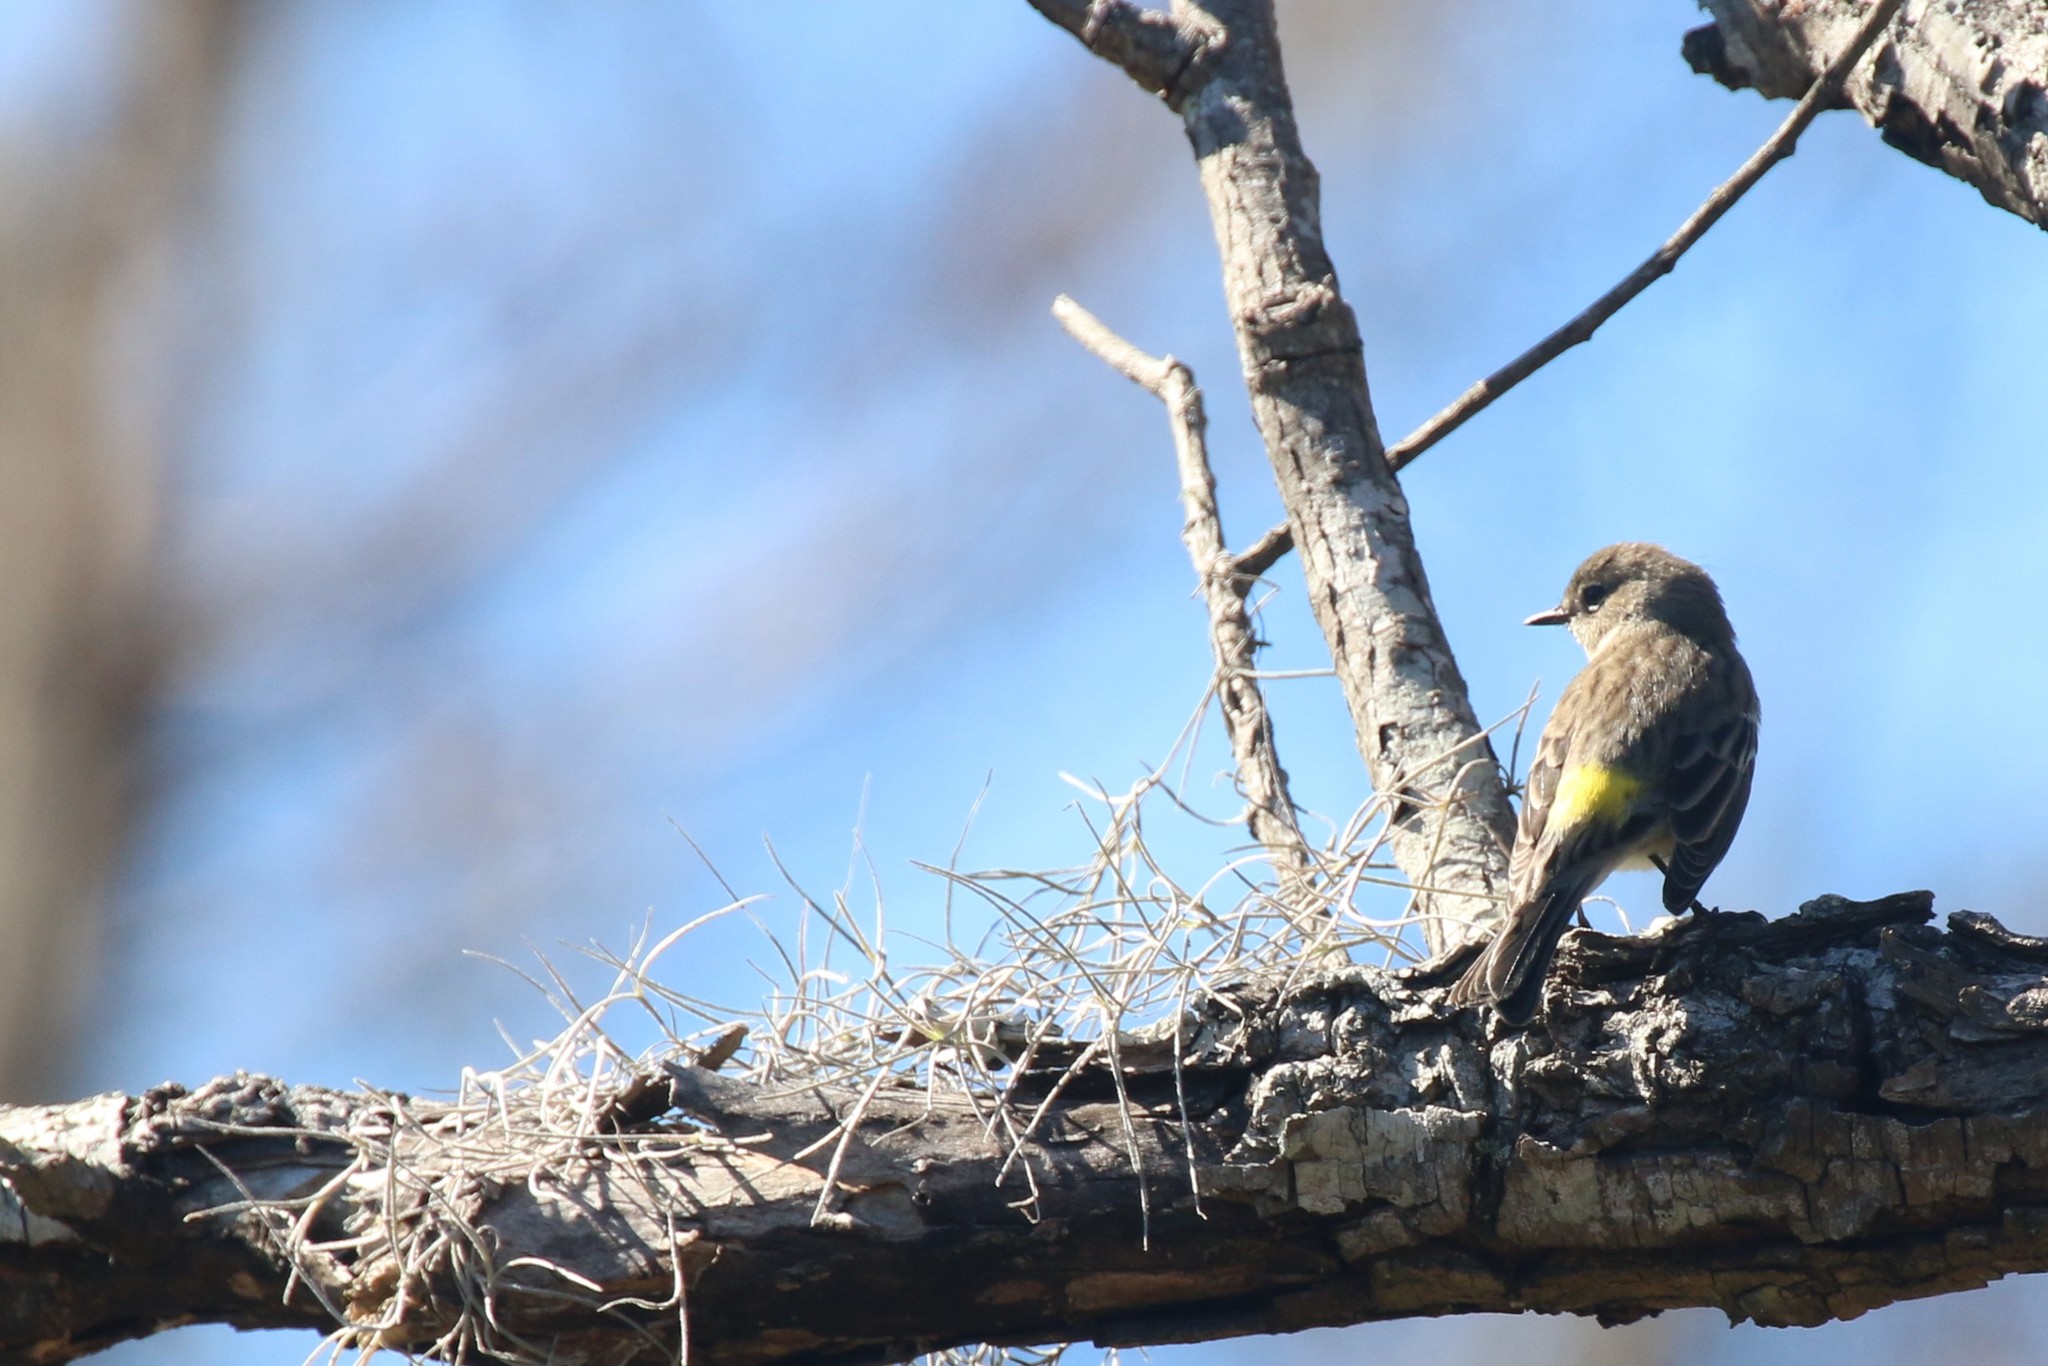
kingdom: Animalia
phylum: Chordata
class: Aves
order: Passeriformes
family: Parulidae
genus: Setophaga
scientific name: Setophaga coronata
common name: Myrtle warbler
